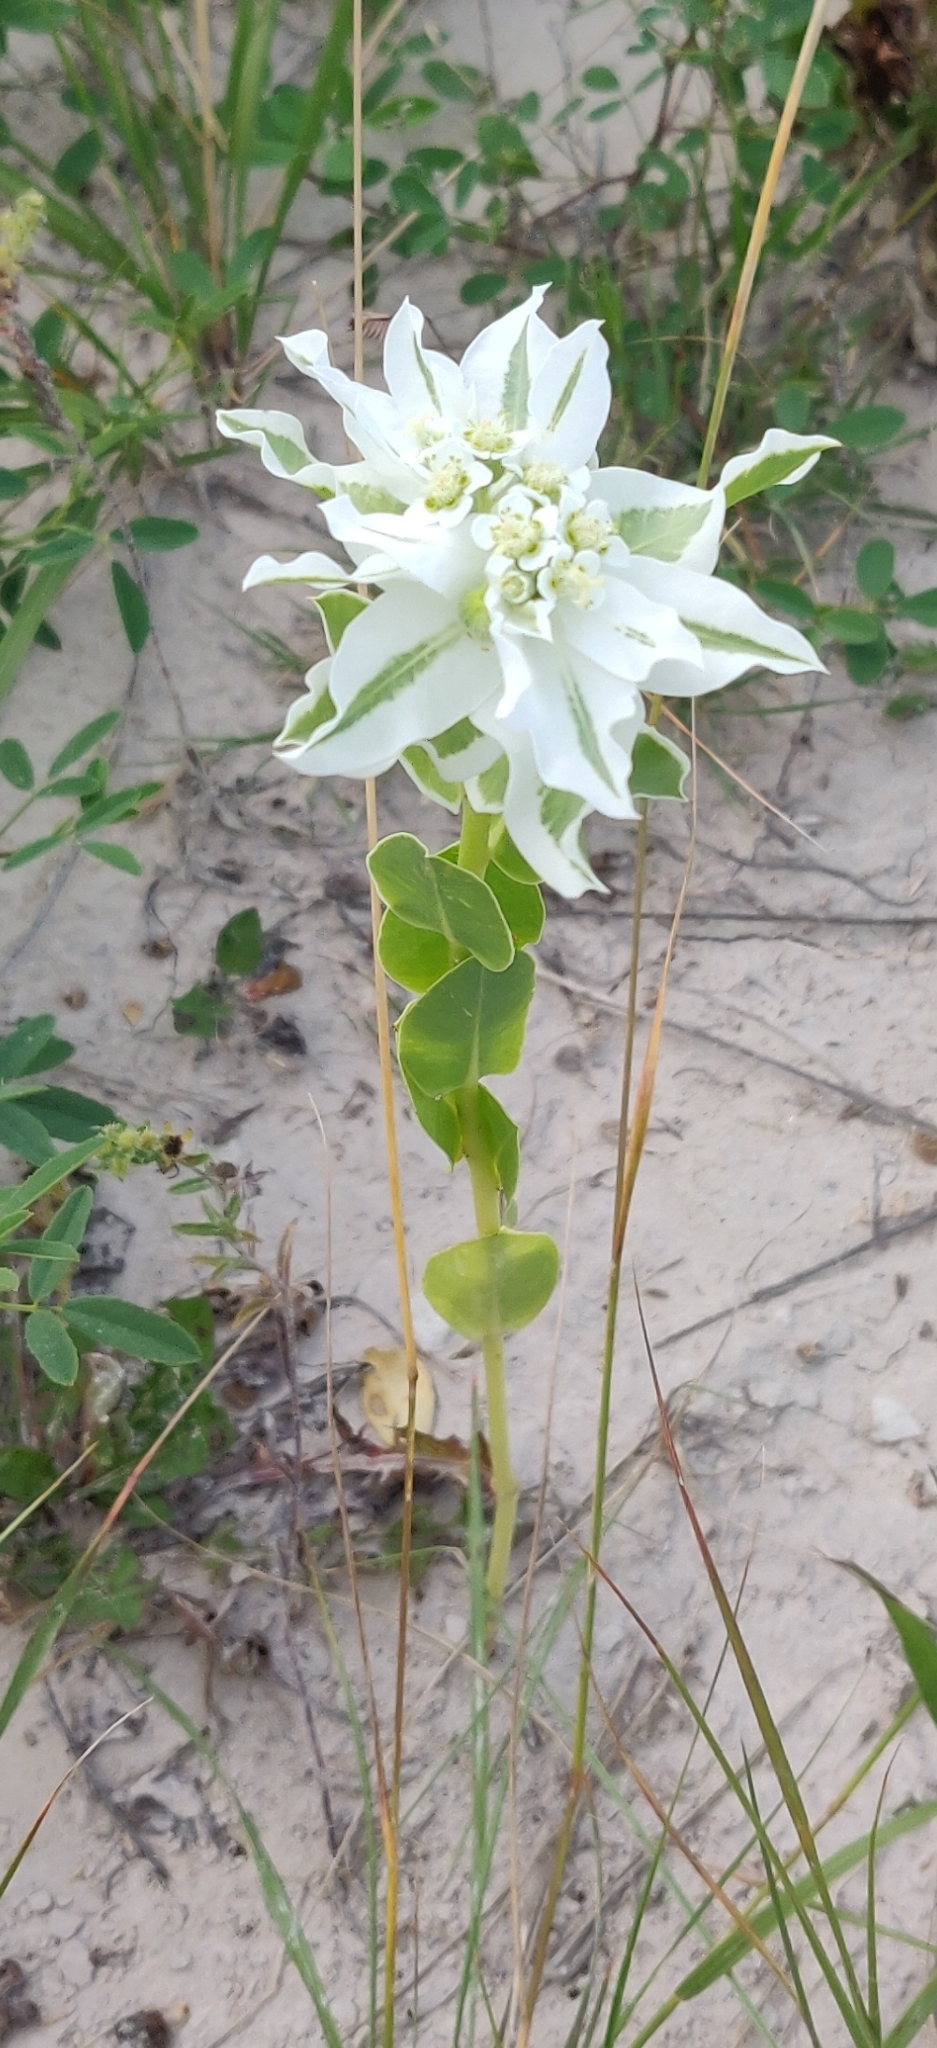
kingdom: Plantae
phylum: Tracheophyta
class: Magnoliopsida
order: Malpighiales
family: Euphorbiaceae
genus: Euphorbia
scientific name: Euphorbia marginata
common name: Ghostweed
